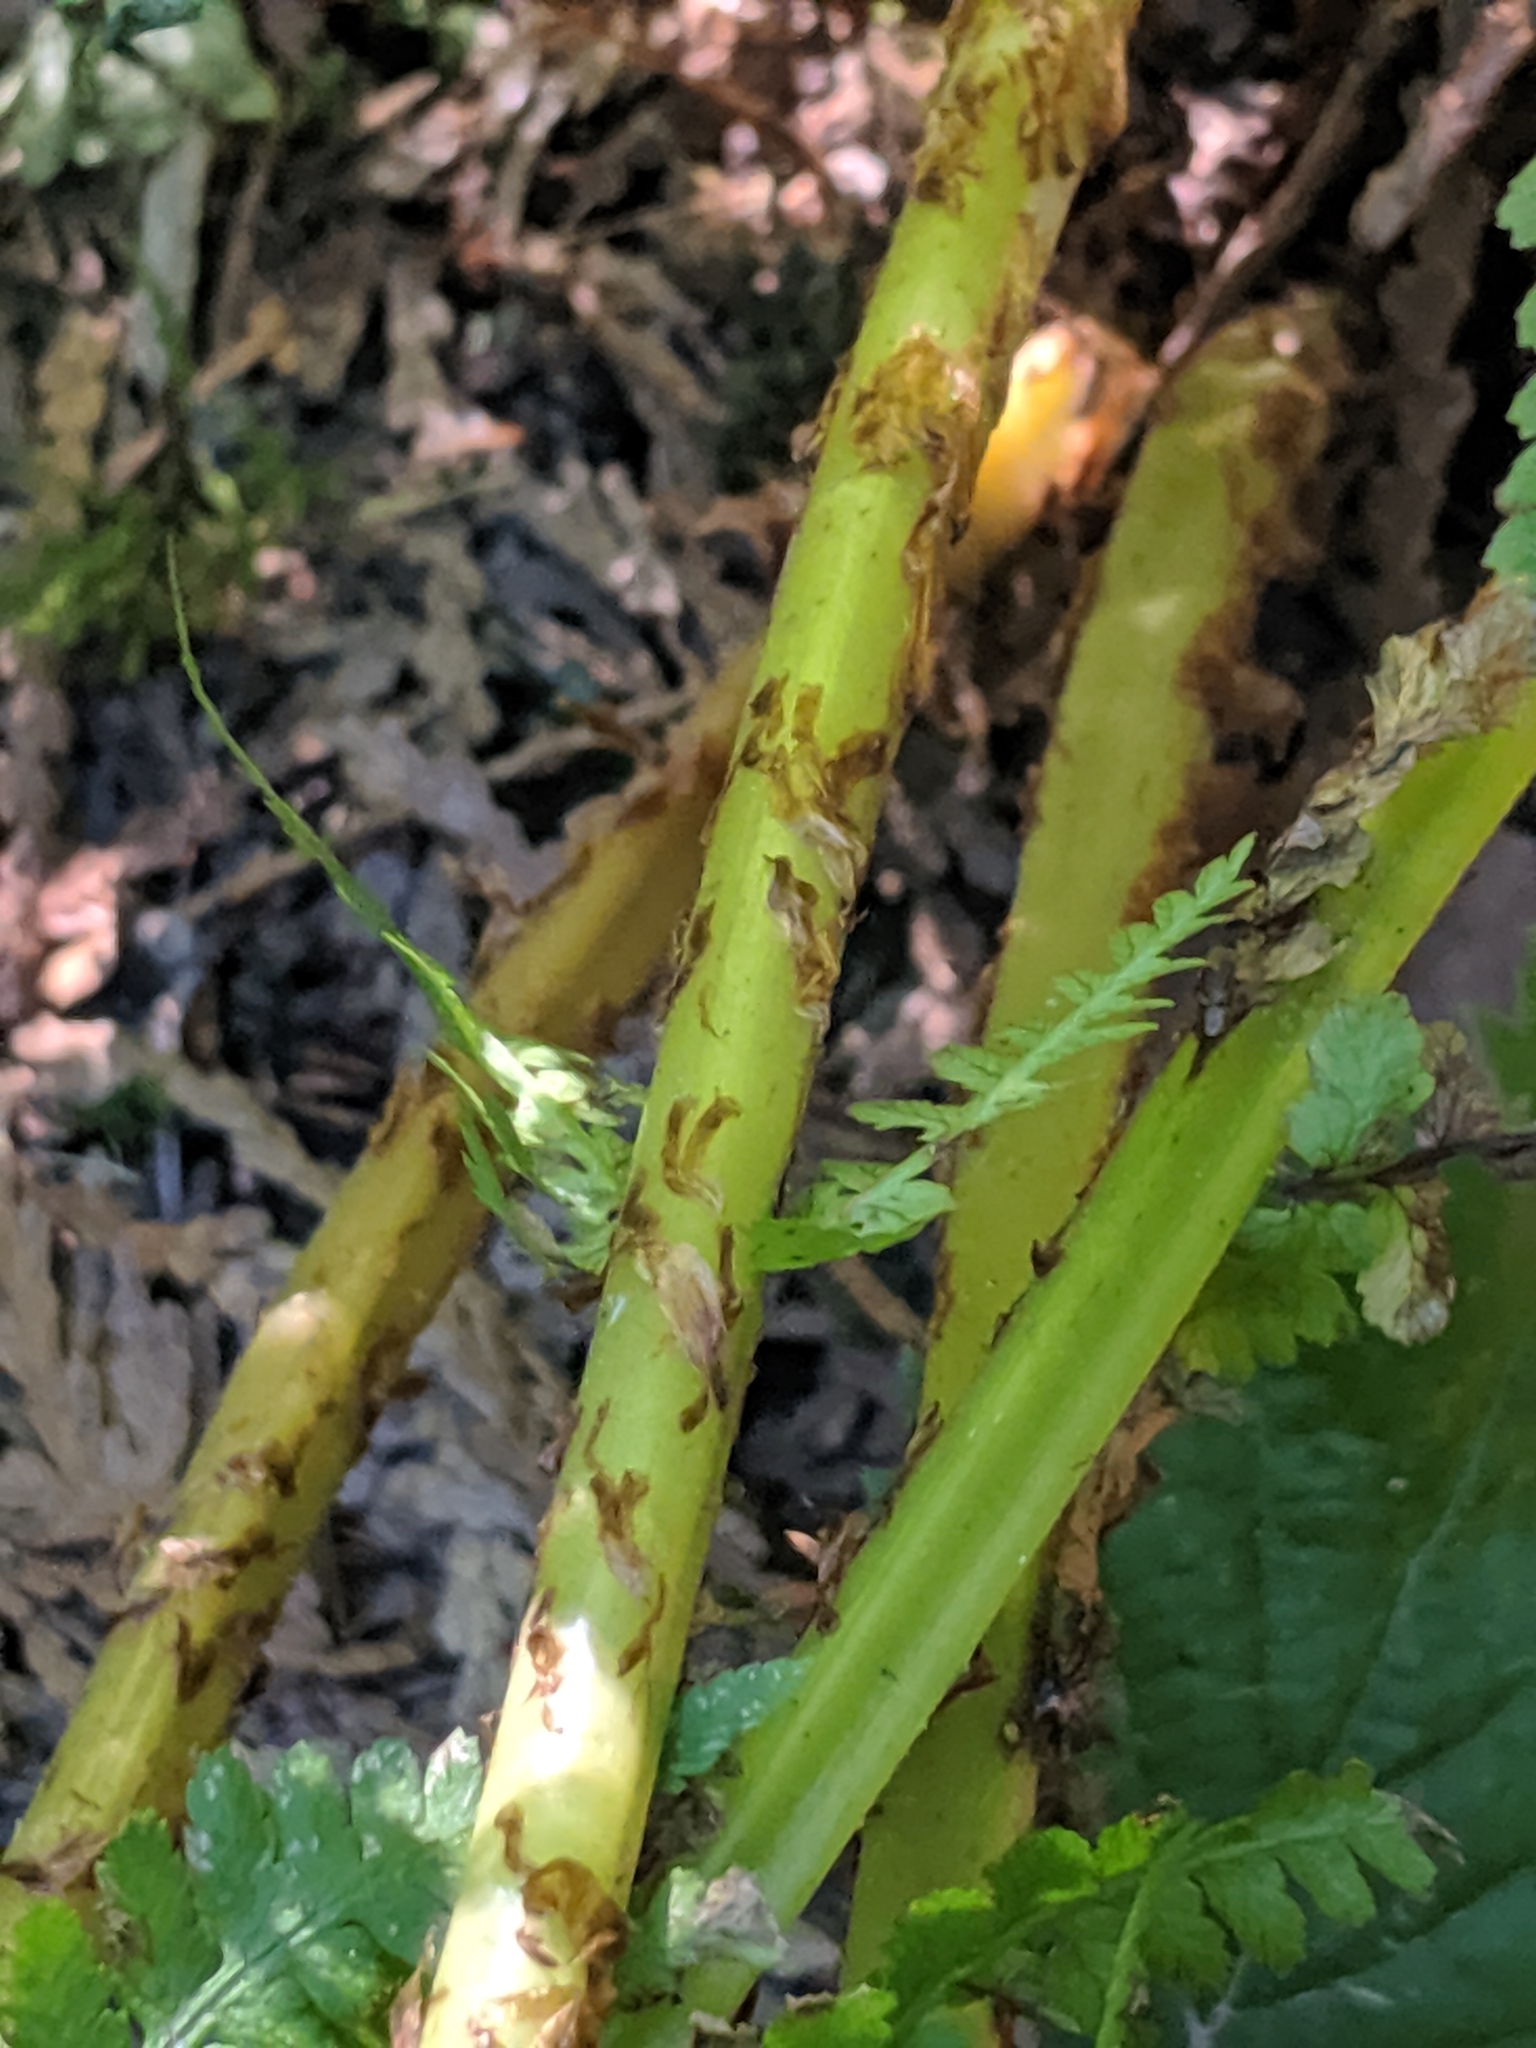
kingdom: Plantae
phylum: Tracheophyta
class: Polypodiopsida
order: Polypodiales
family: Athyriaceae
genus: Athyrium
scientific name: Athyrium filix-femina
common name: Lady fern
